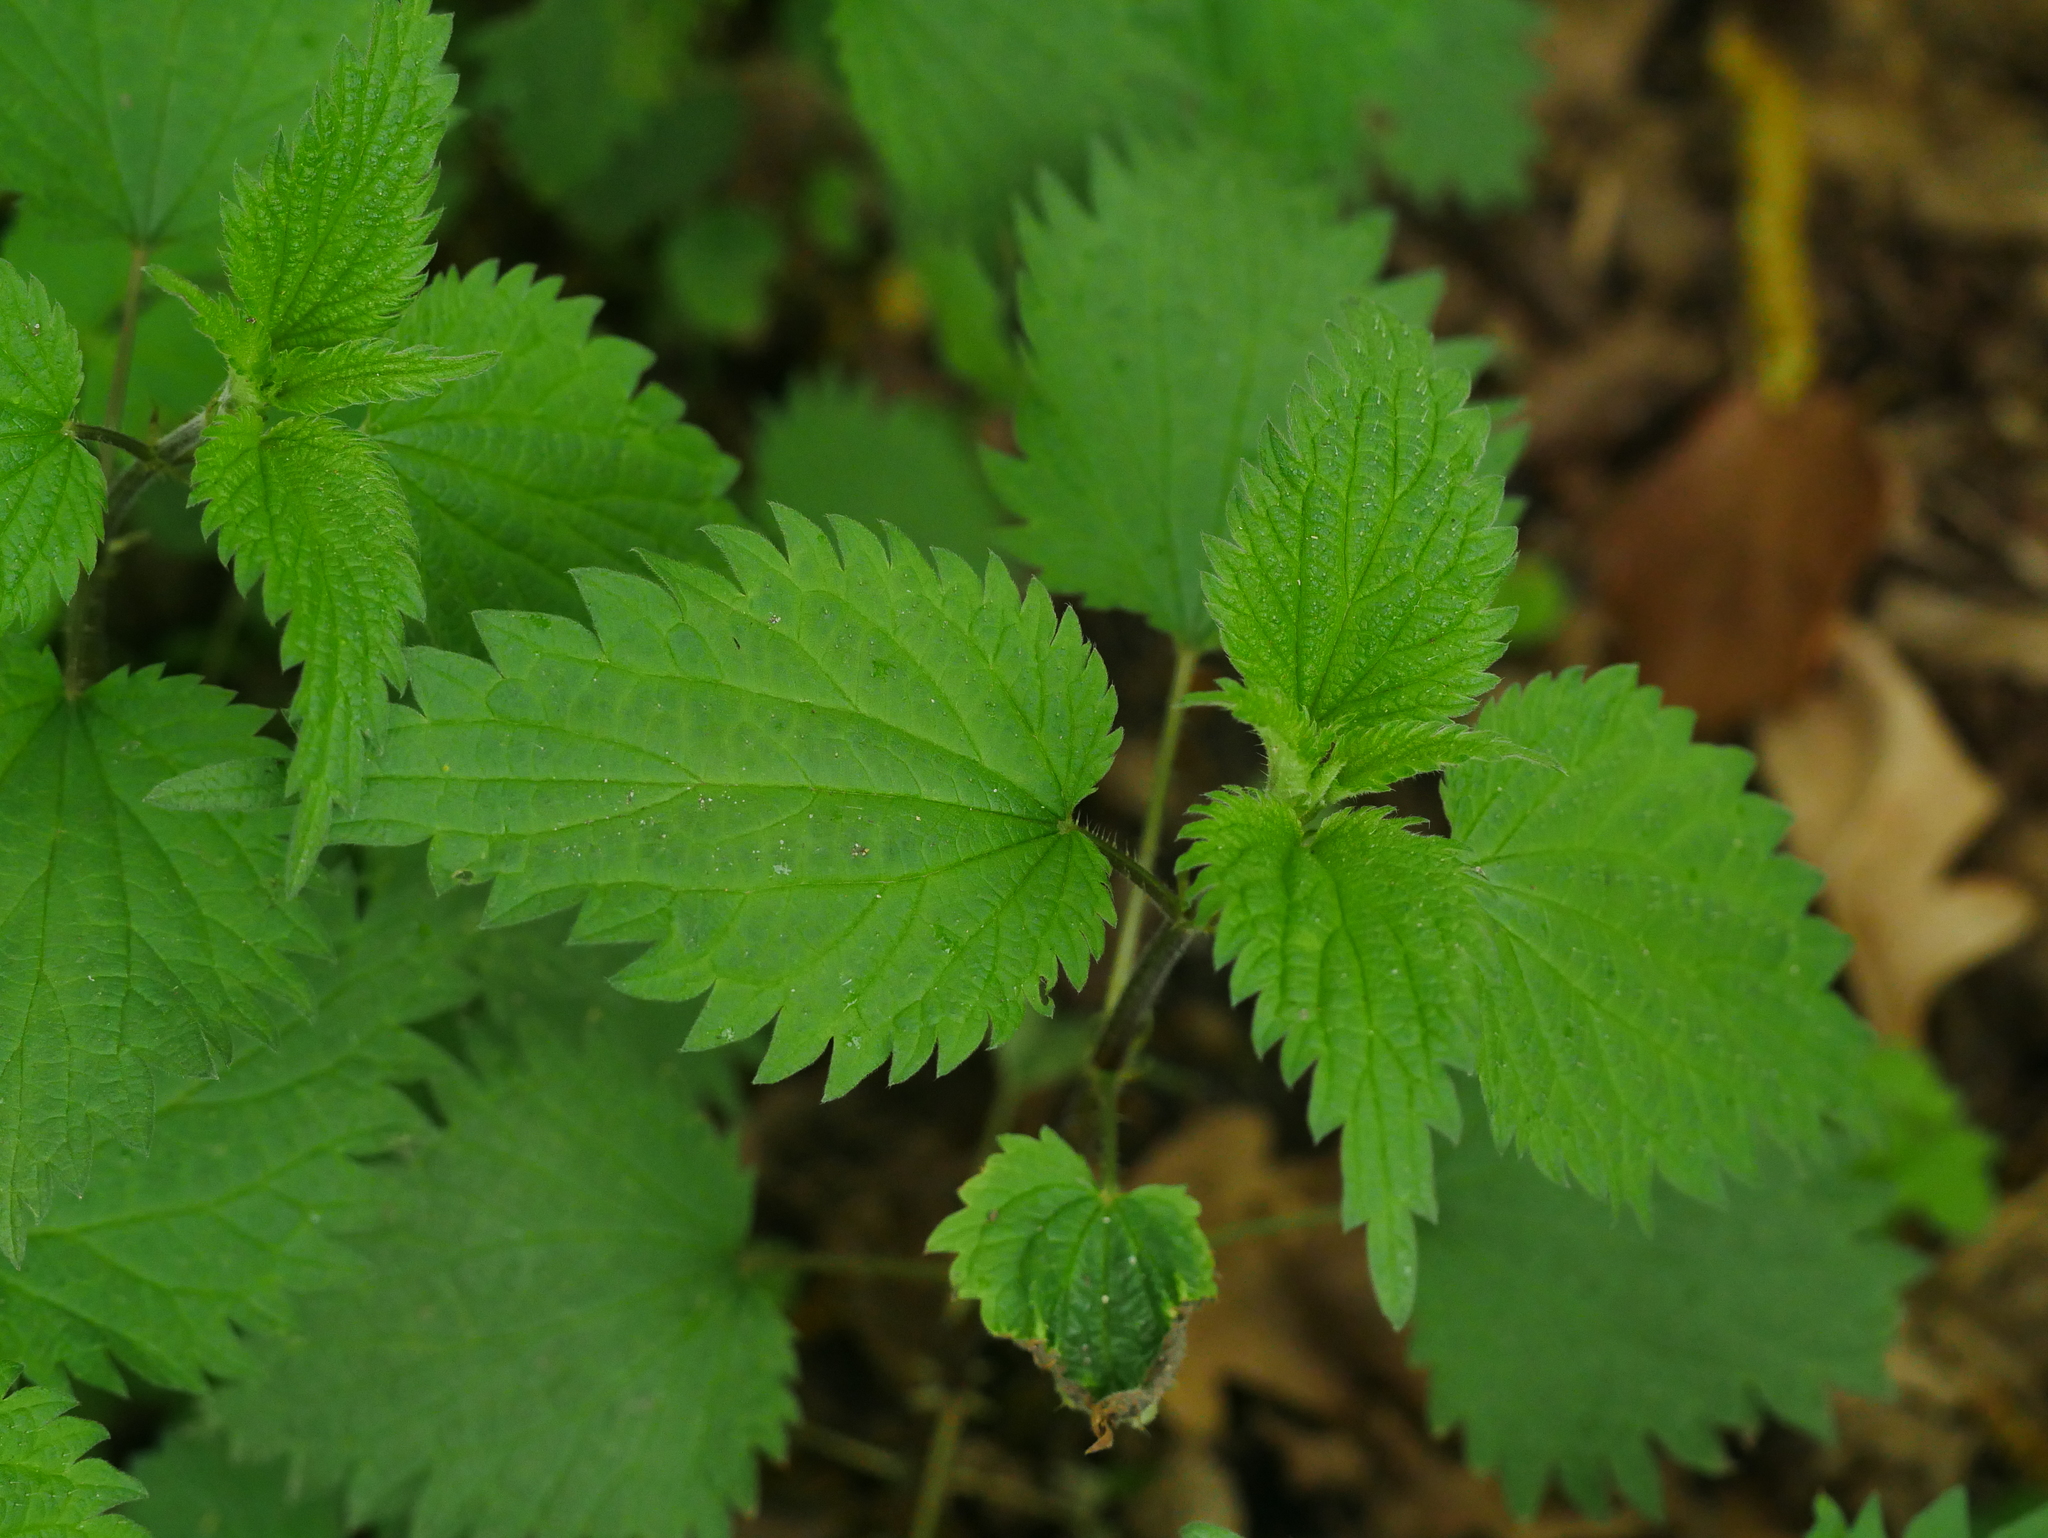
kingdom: Plantae
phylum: Tracheophyta
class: Magnoliopsida
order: Rosales
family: Urticaceae
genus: Urtica
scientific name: Urtica dioica
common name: Common nettle
